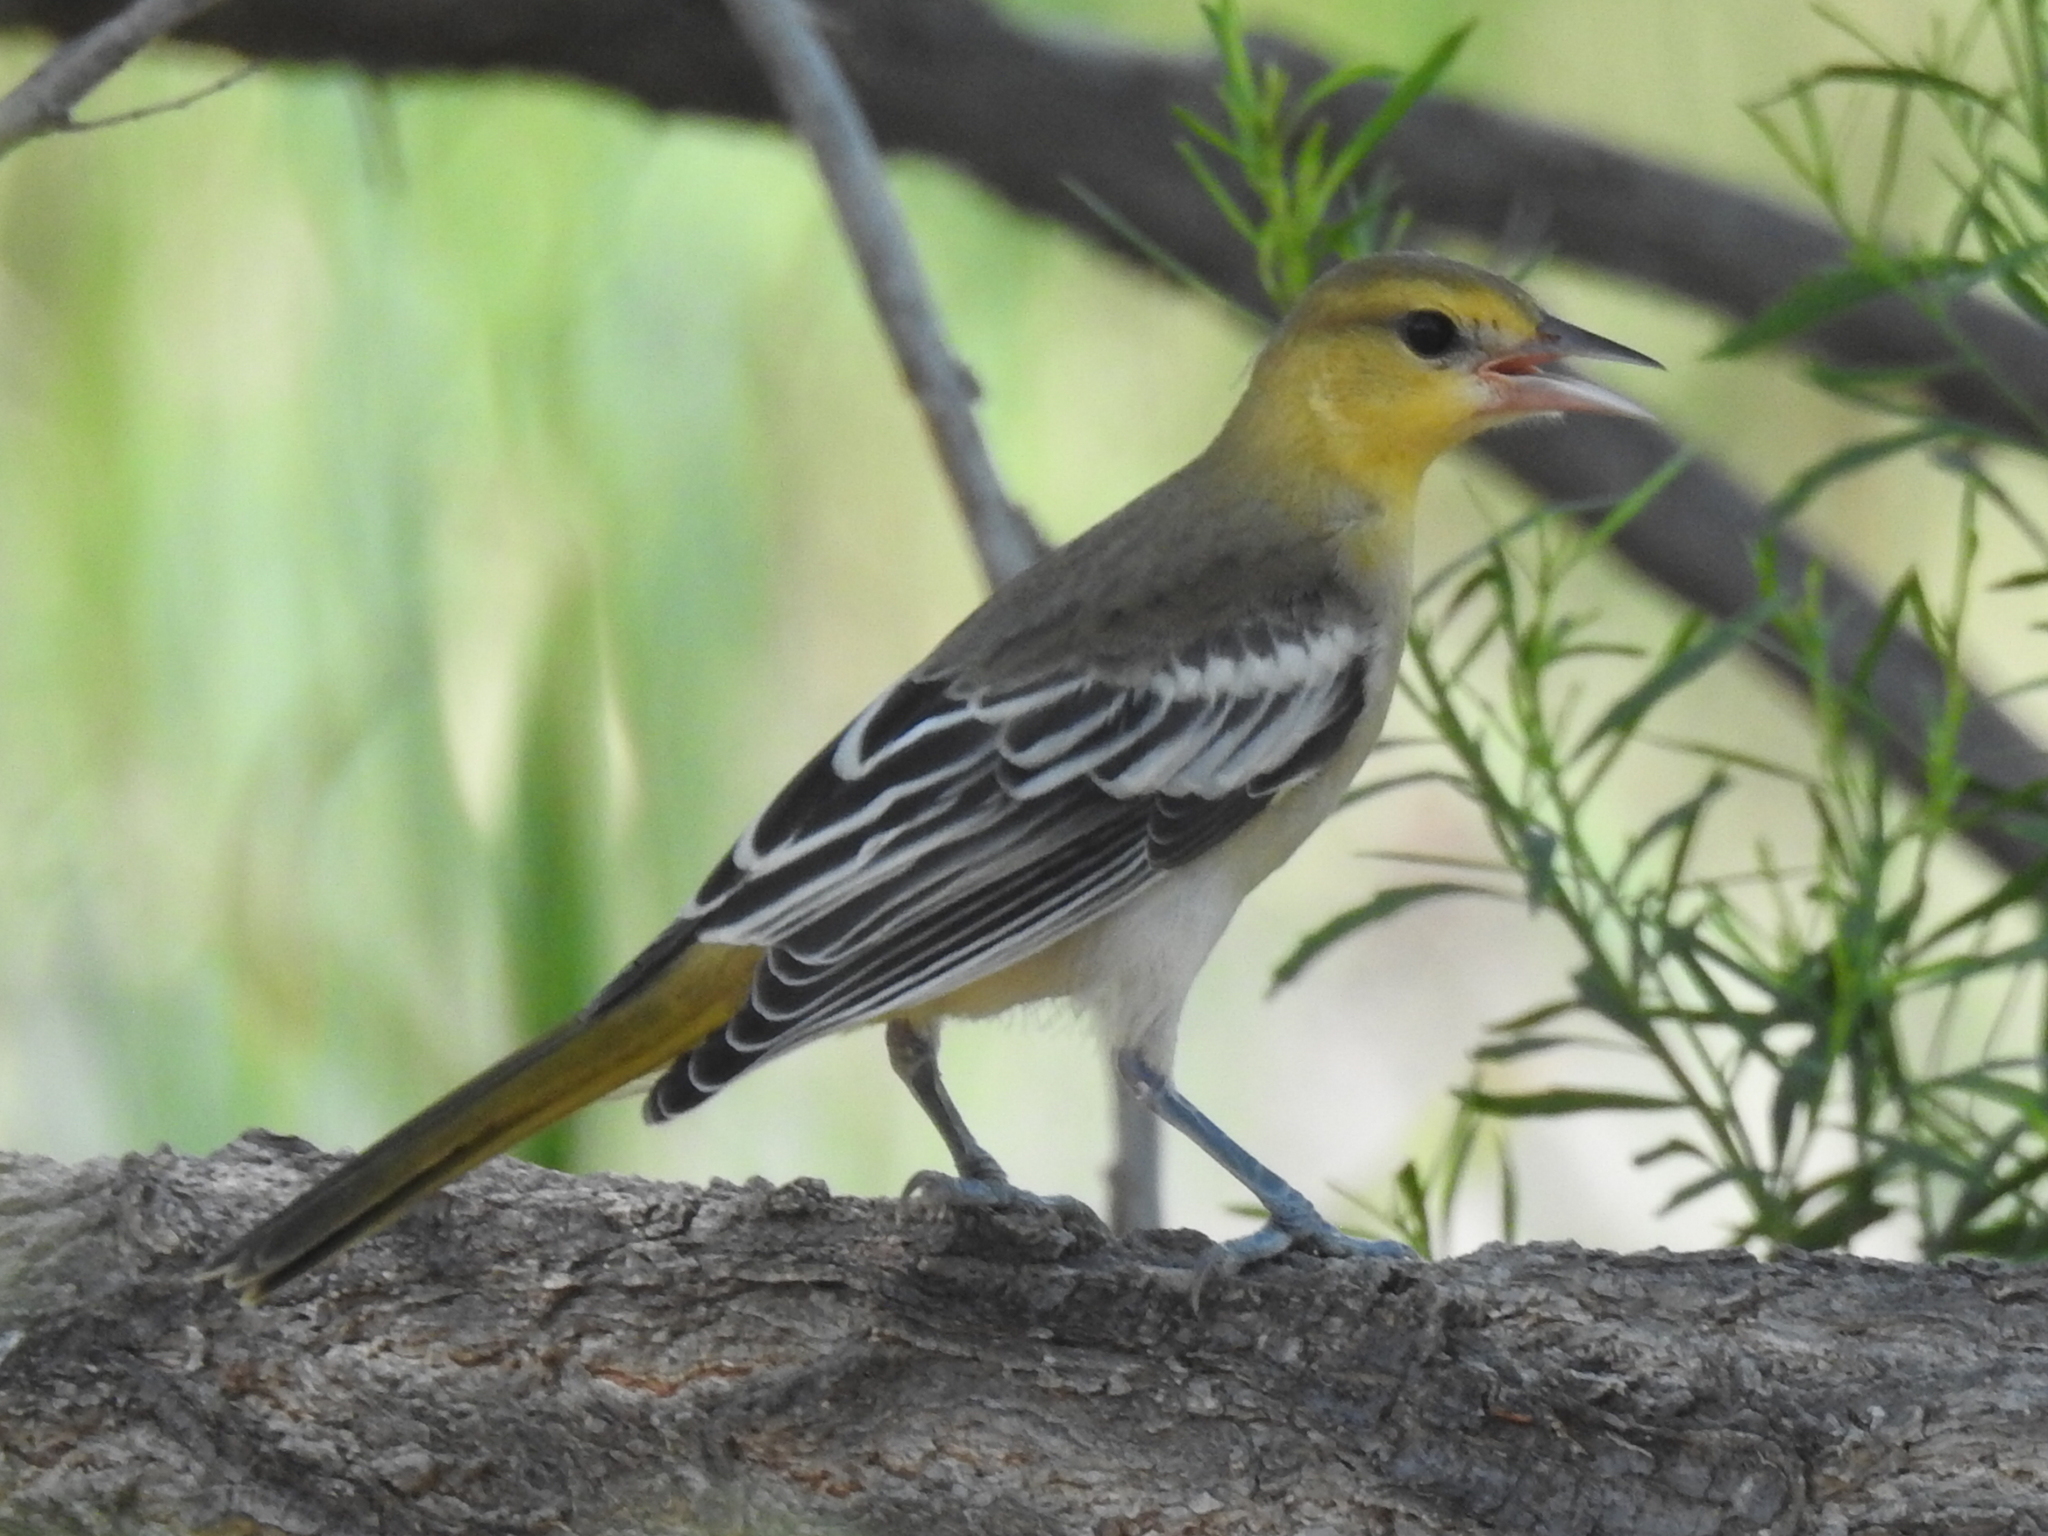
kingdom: Animalia
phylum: Chordata
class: Aves
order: Passeriformes
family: Icteridae
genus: Icterus
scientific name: Icterus bullockii
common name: Bullock's oriole
